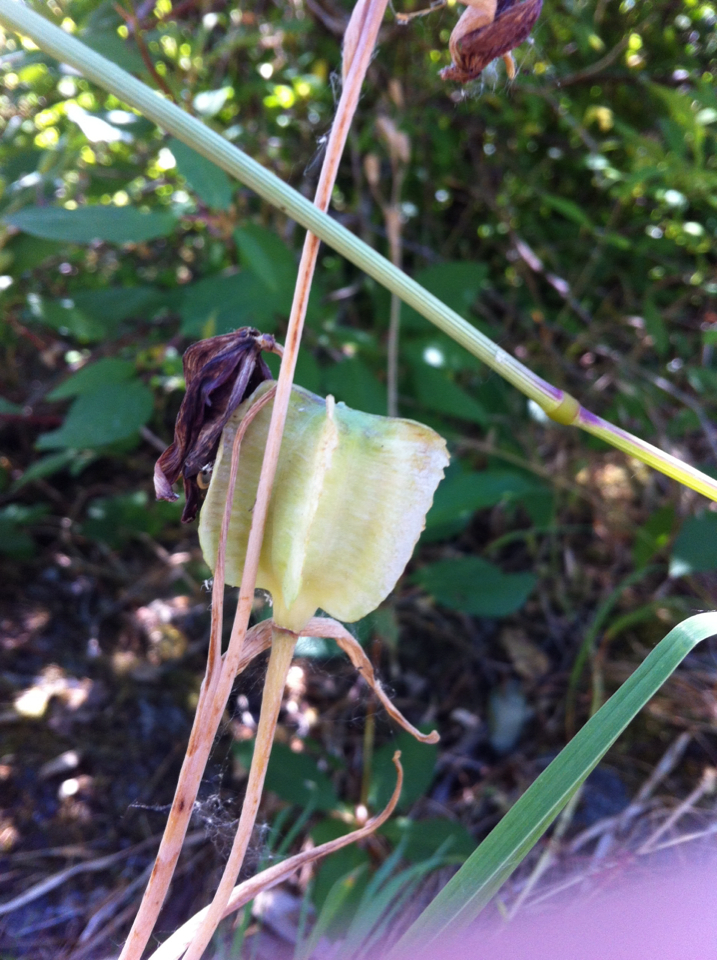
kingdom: Plantae
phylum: Tracheophyta
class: Liliopsida
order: Liliales
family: Liliaceae
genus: Fritillaria
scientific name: Fritillaria affinis
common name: Ojai fritillary
